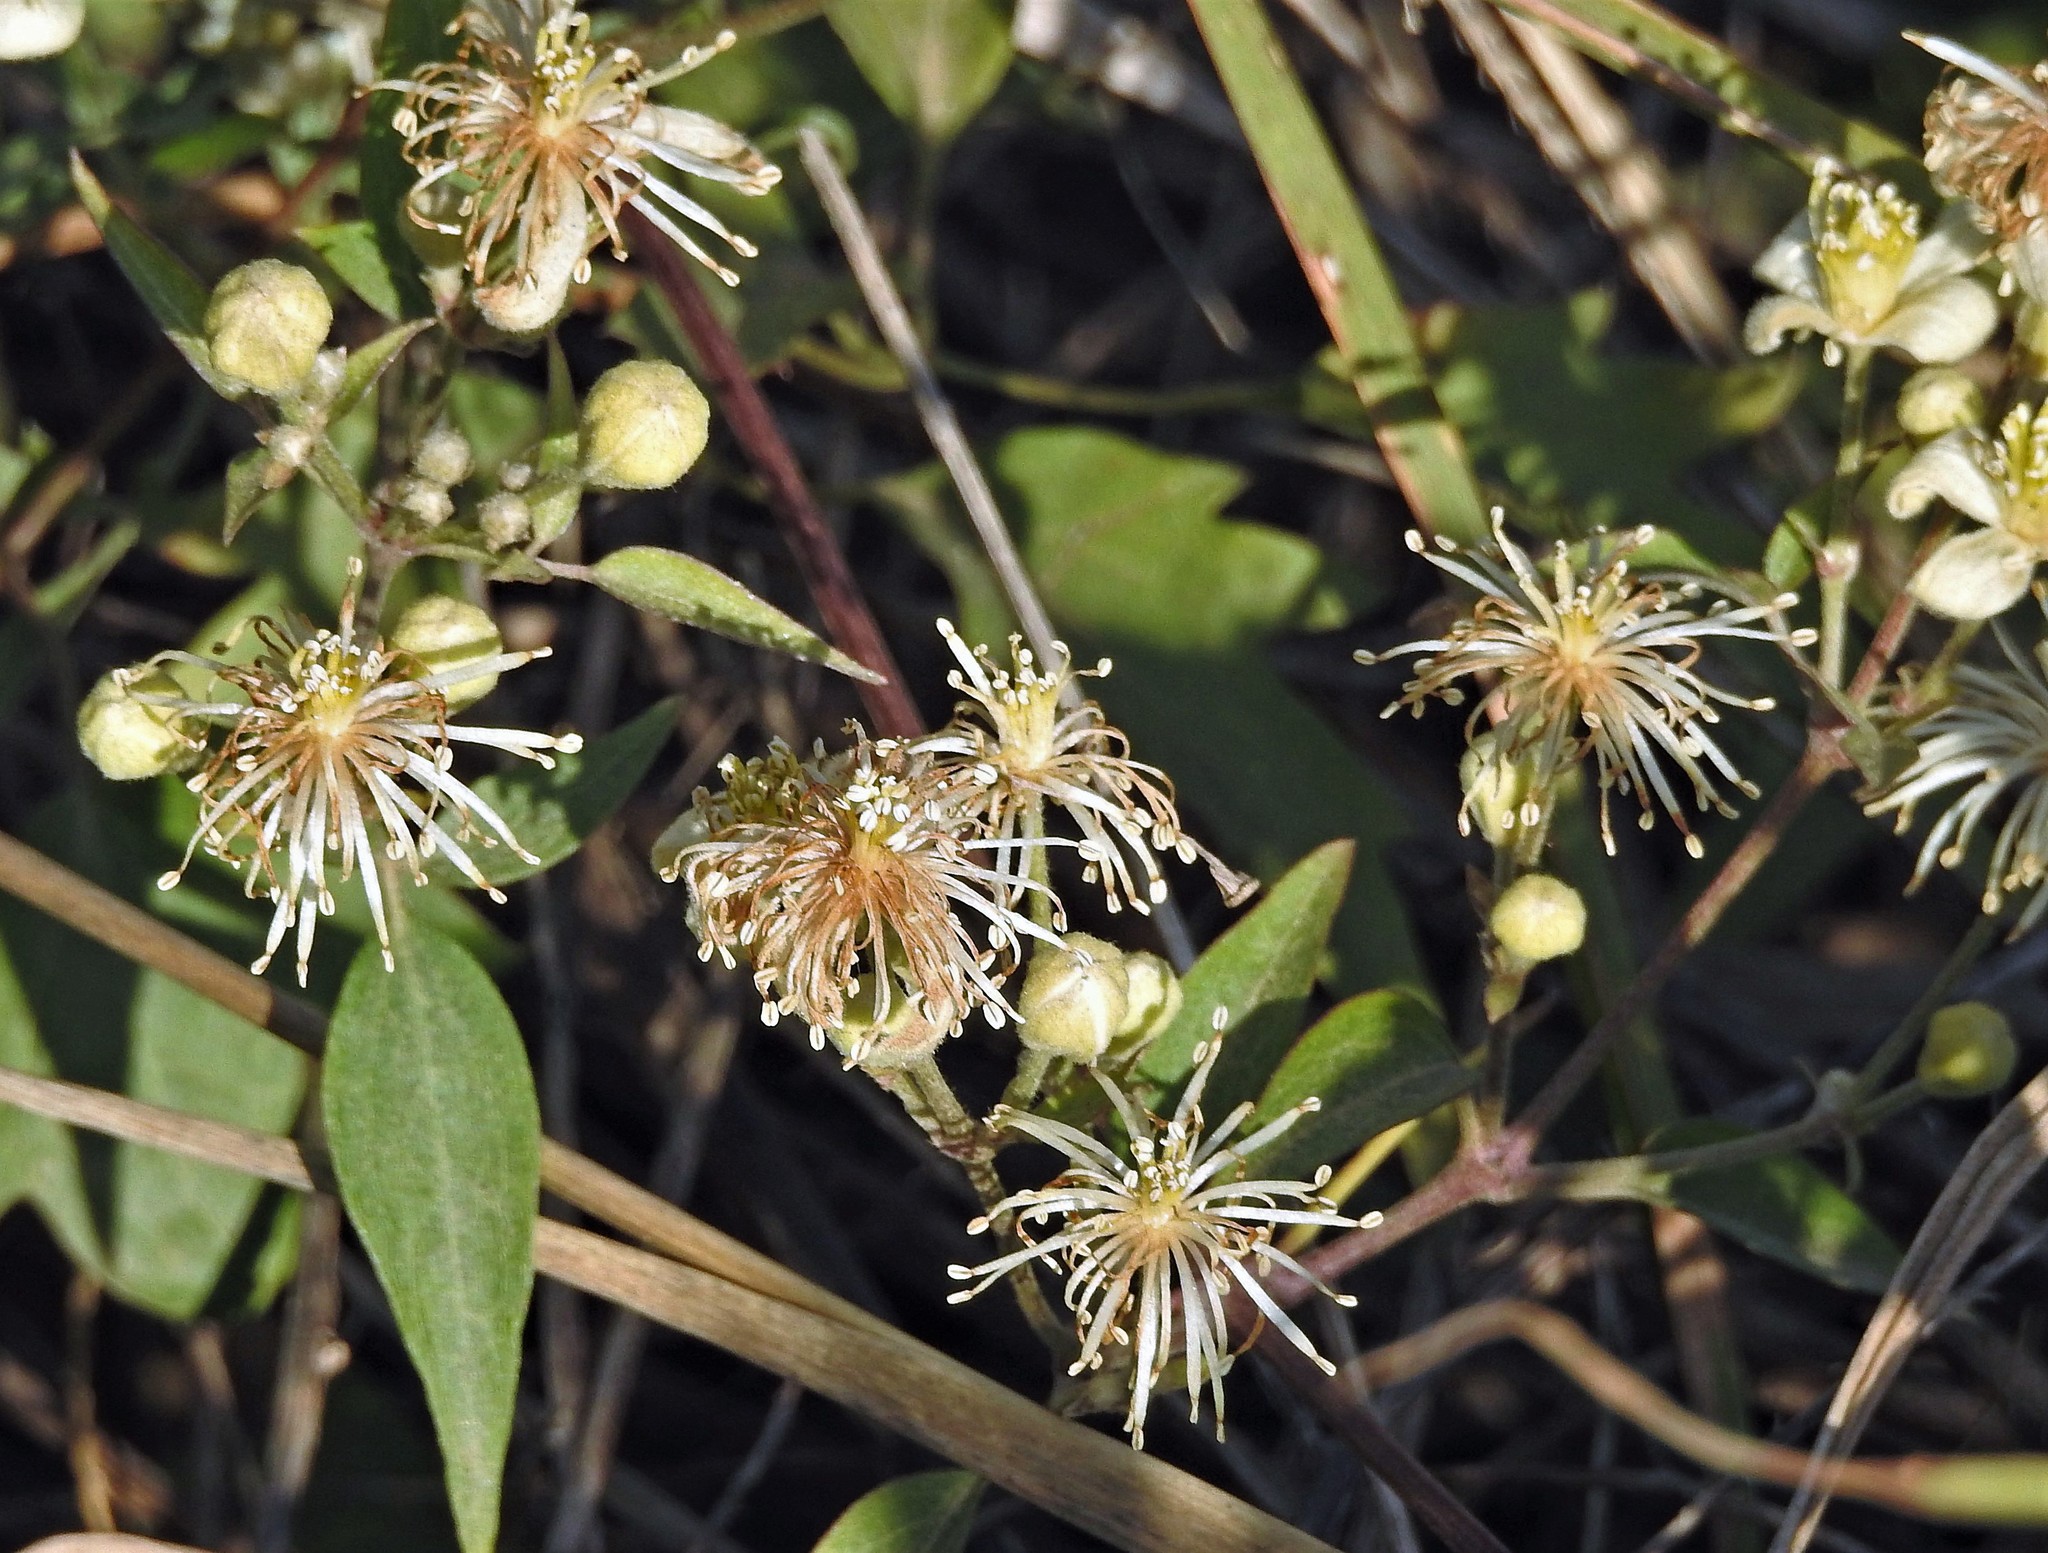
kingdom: Plantae
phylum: Tracheophyta
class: Magnoliopsida
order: Ranunculales
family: Ranunculaceae
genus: Clematis
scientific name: Clematis montevidensis
